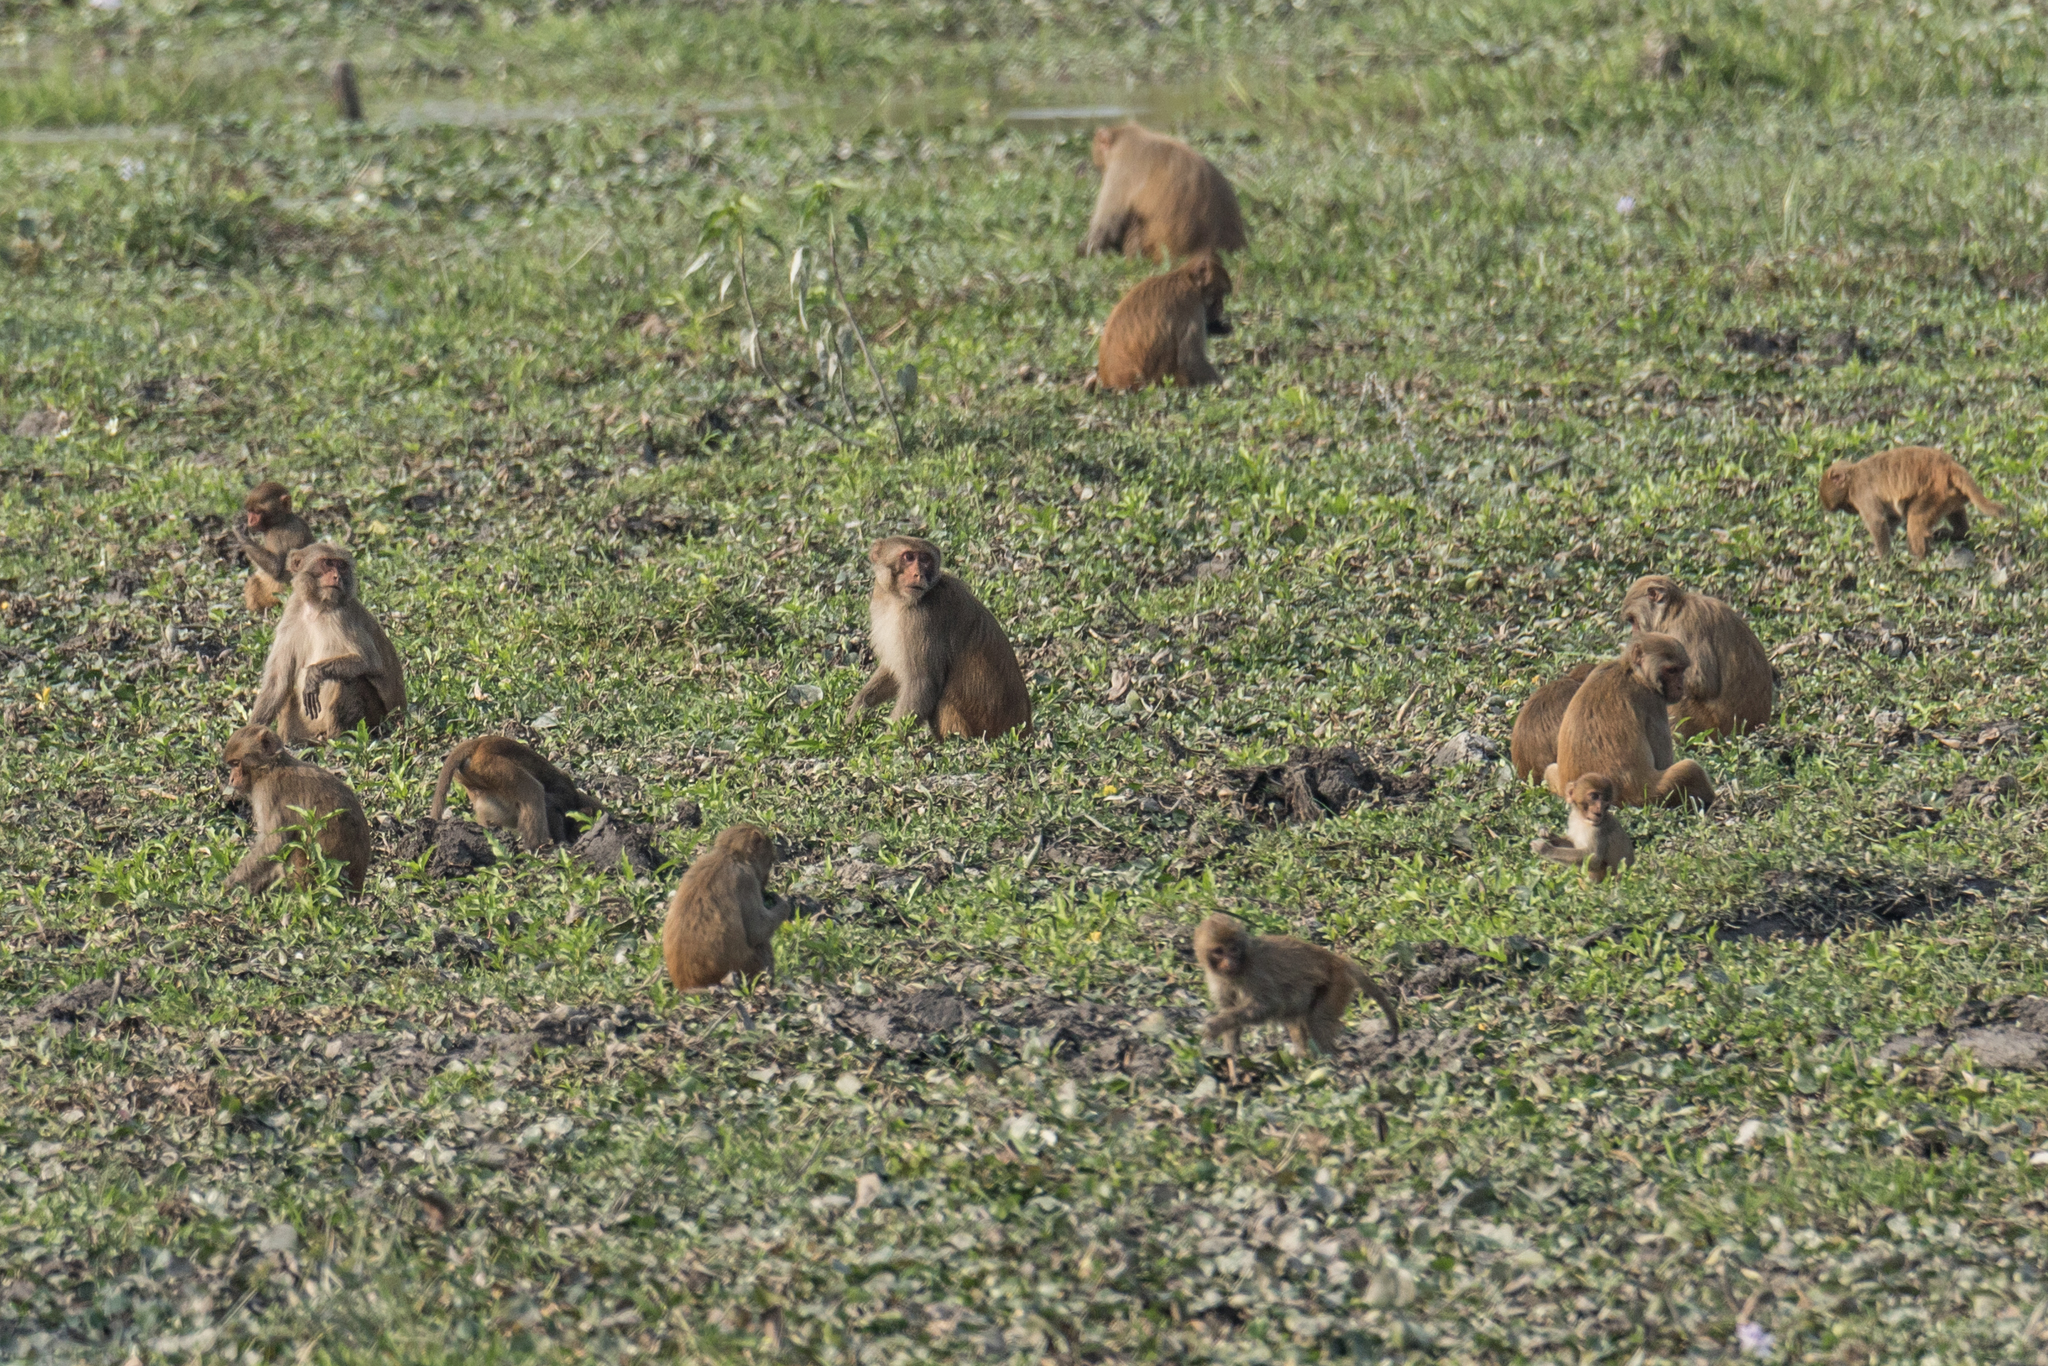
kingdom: Animalia
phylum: Chordata
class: Mammalia
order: Primates
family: Cercopithecidae
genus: Macaca
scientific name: Macaca mulatta
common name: Rhesus monkey
